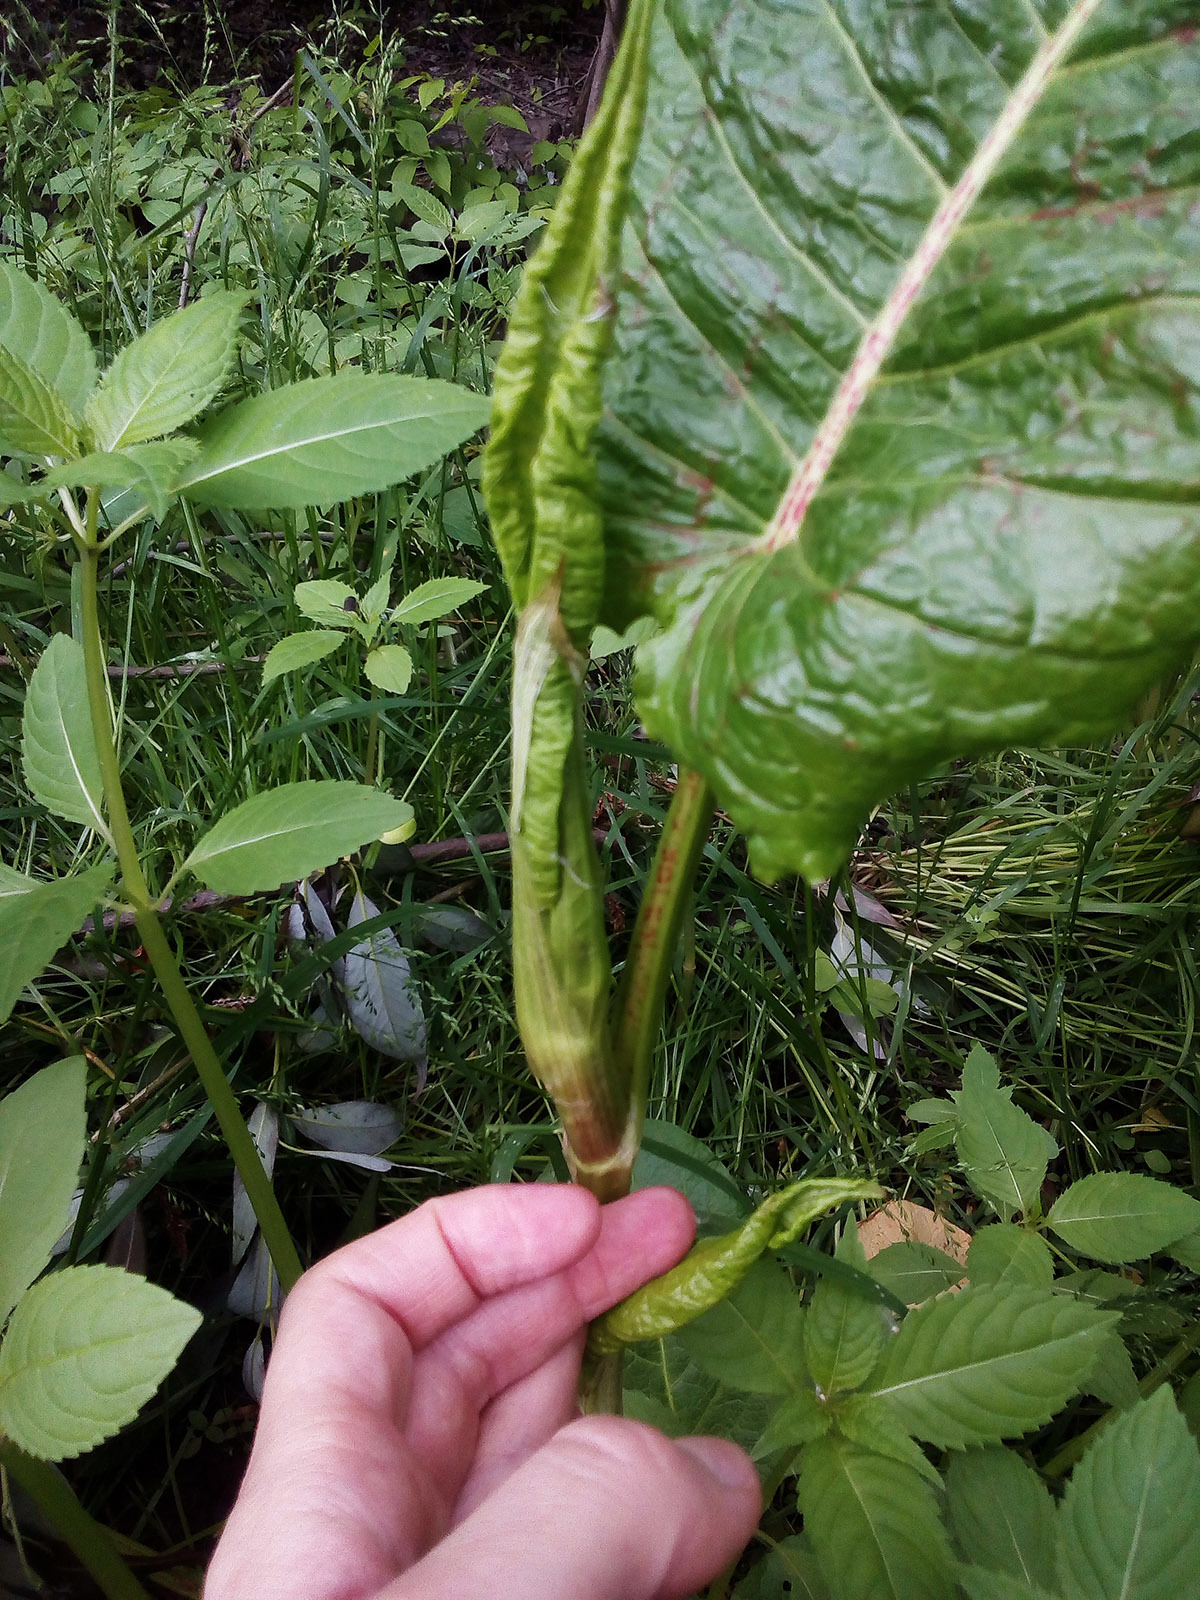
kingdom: Plantae
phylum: Tracheophyta
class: Magnoliopsida
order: Caryophyllales
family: Polygonaceae
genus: Rumex
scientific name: Rumex obtusifolius
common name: Bitter dock
